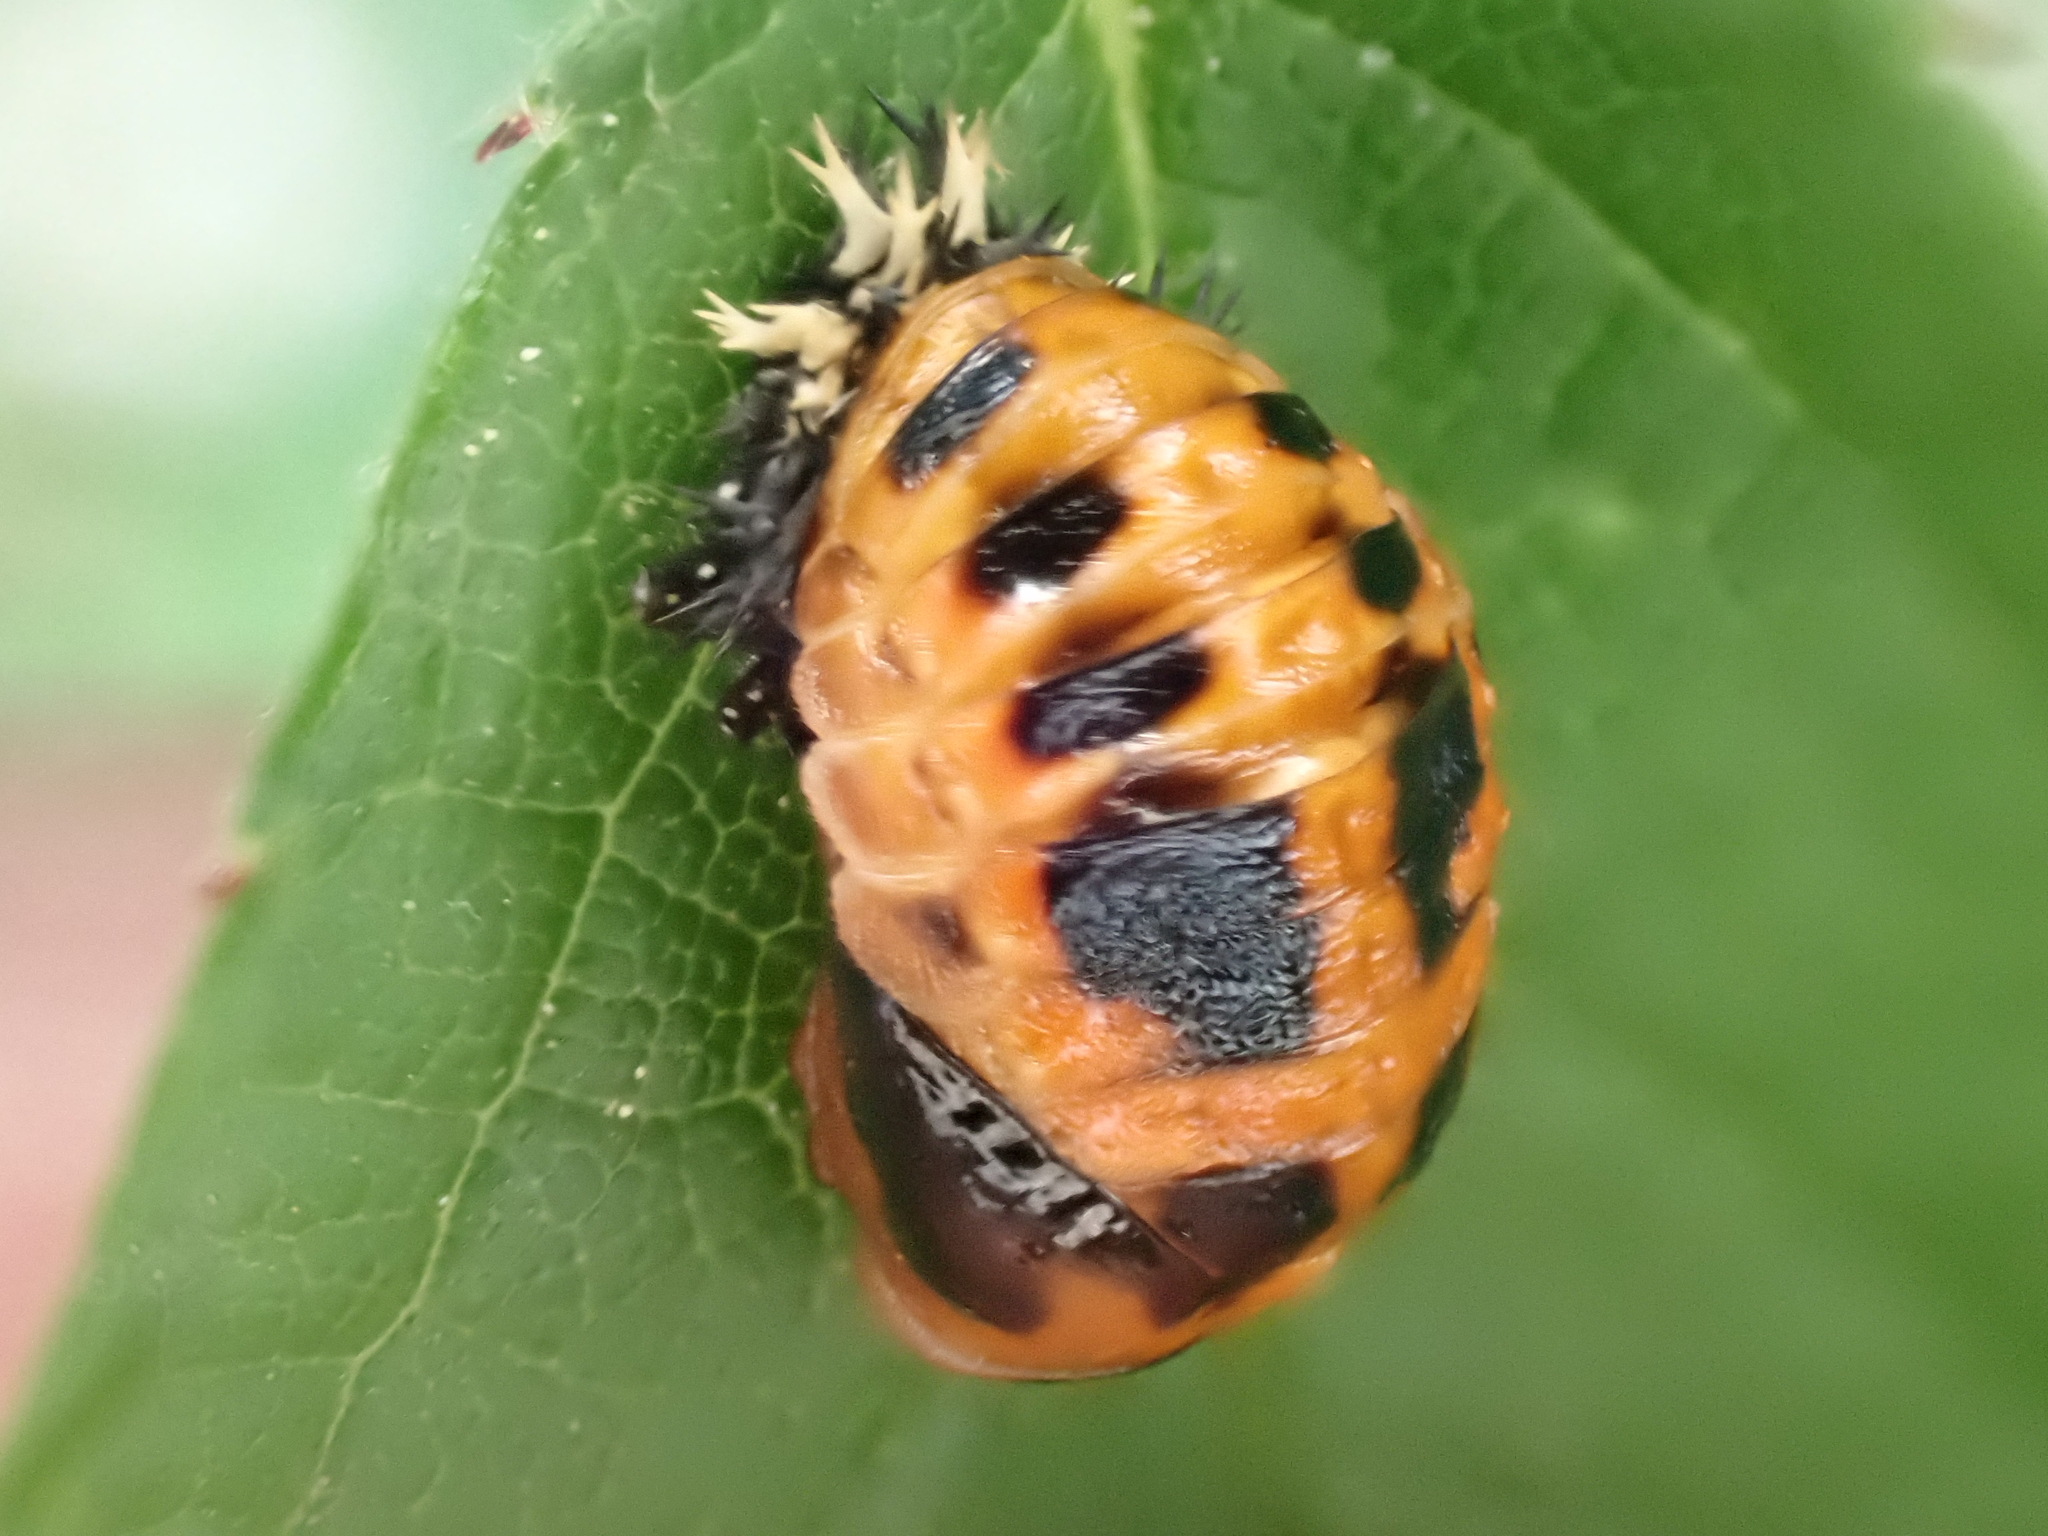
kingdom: Animalia
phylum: Arthropoda
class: Insecta
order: Coleoptera
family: Coccinellidae
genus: Harmonia
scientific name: Harmonia axyridis
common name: Harlequin ladybird
